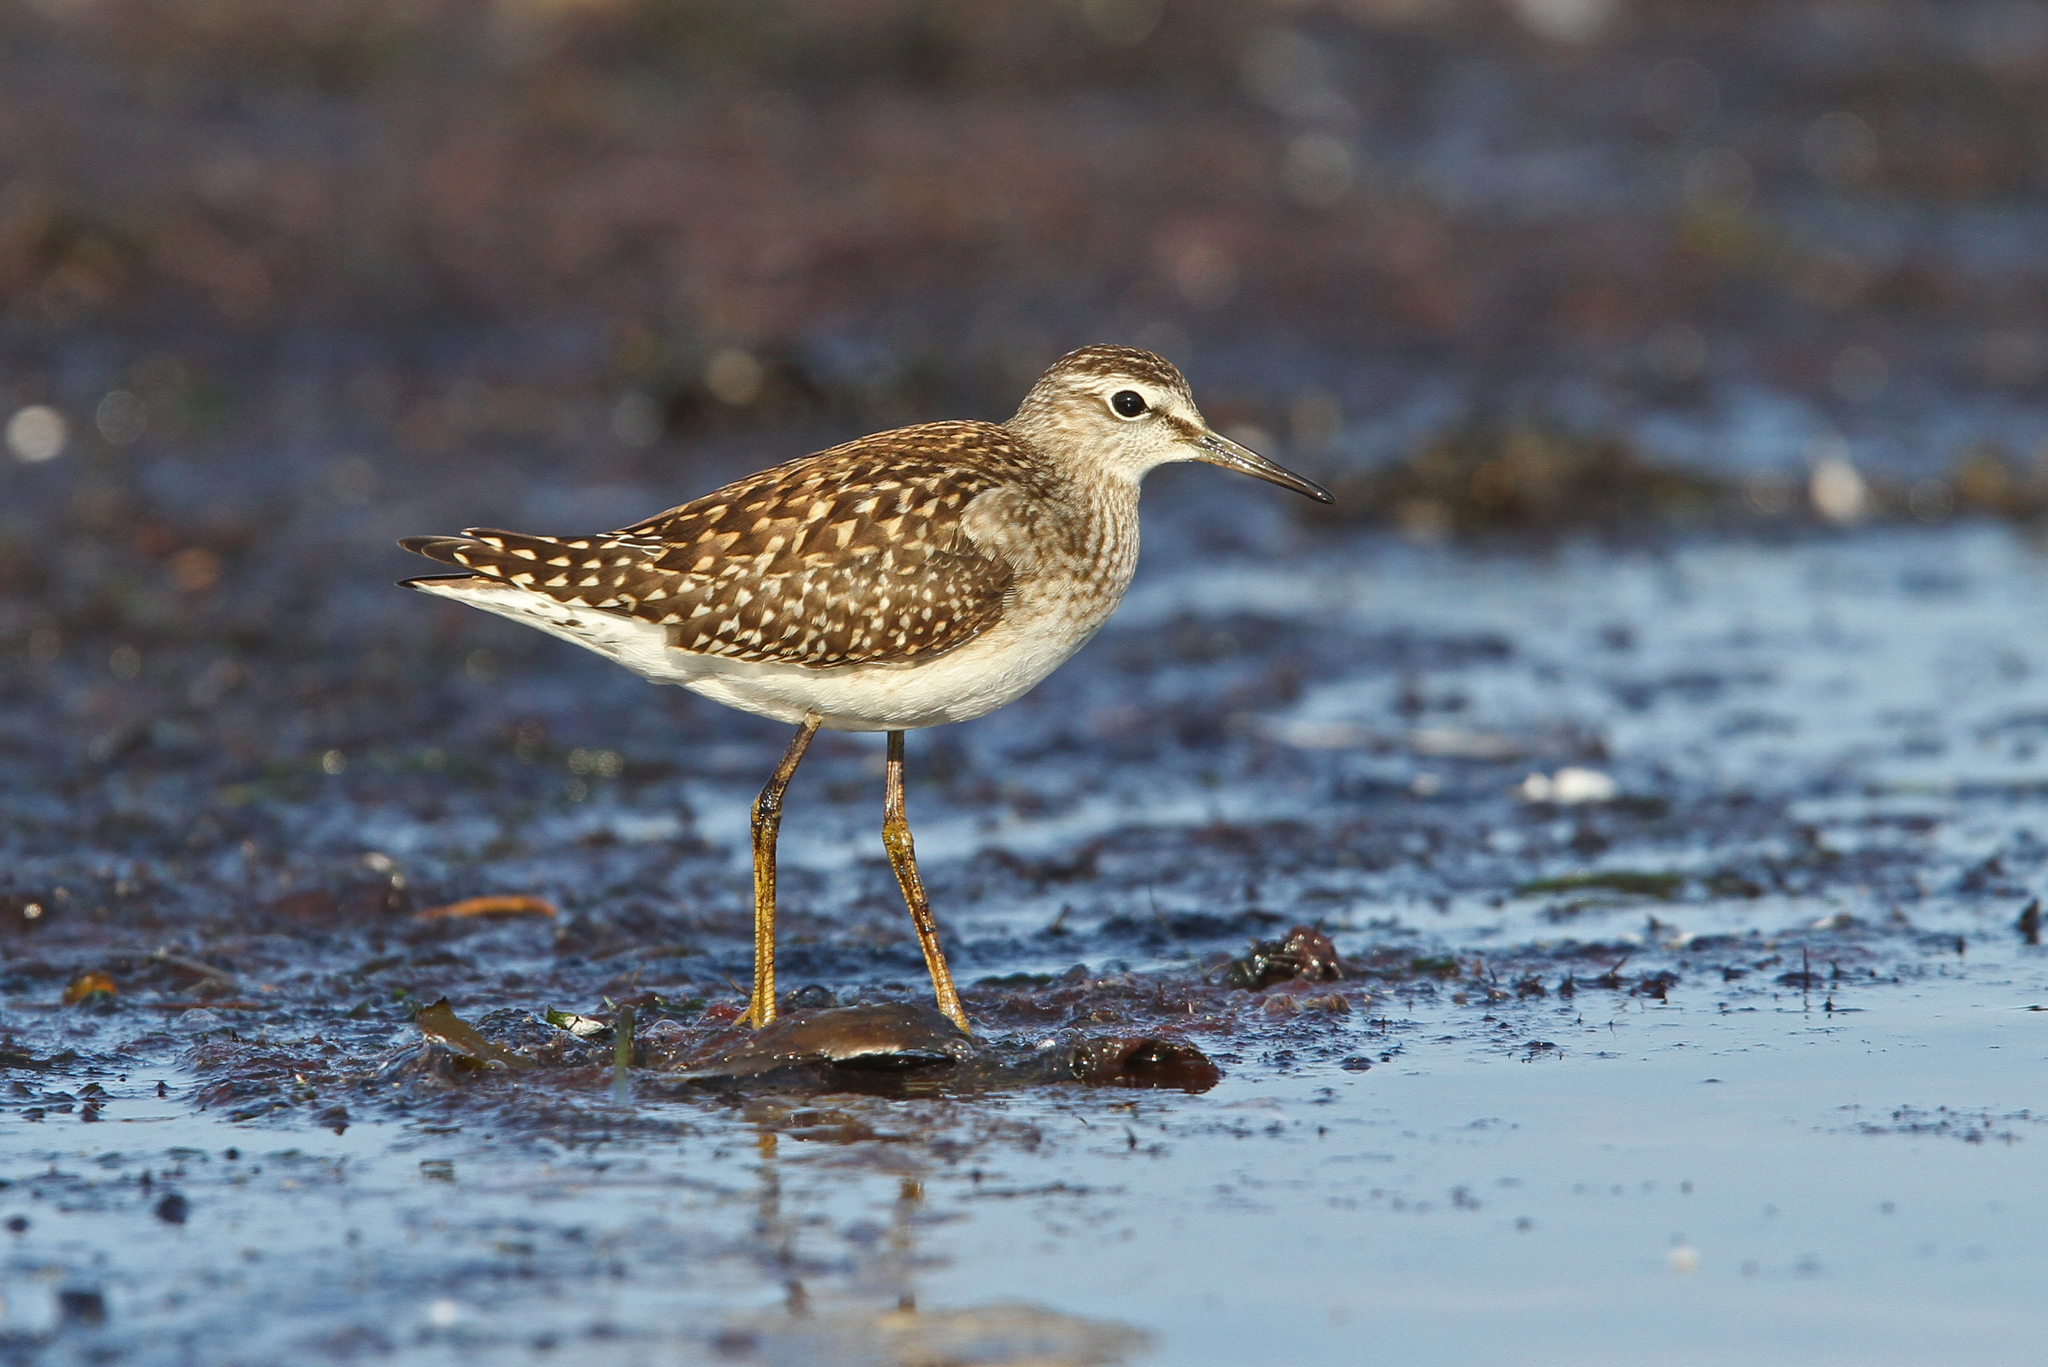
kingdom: Animalia
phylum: Chordata
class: Aves
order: Charadriiformes
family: Scolopacidae
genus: Tringa
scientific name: Tringa glareola
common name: Wood sandpiper
